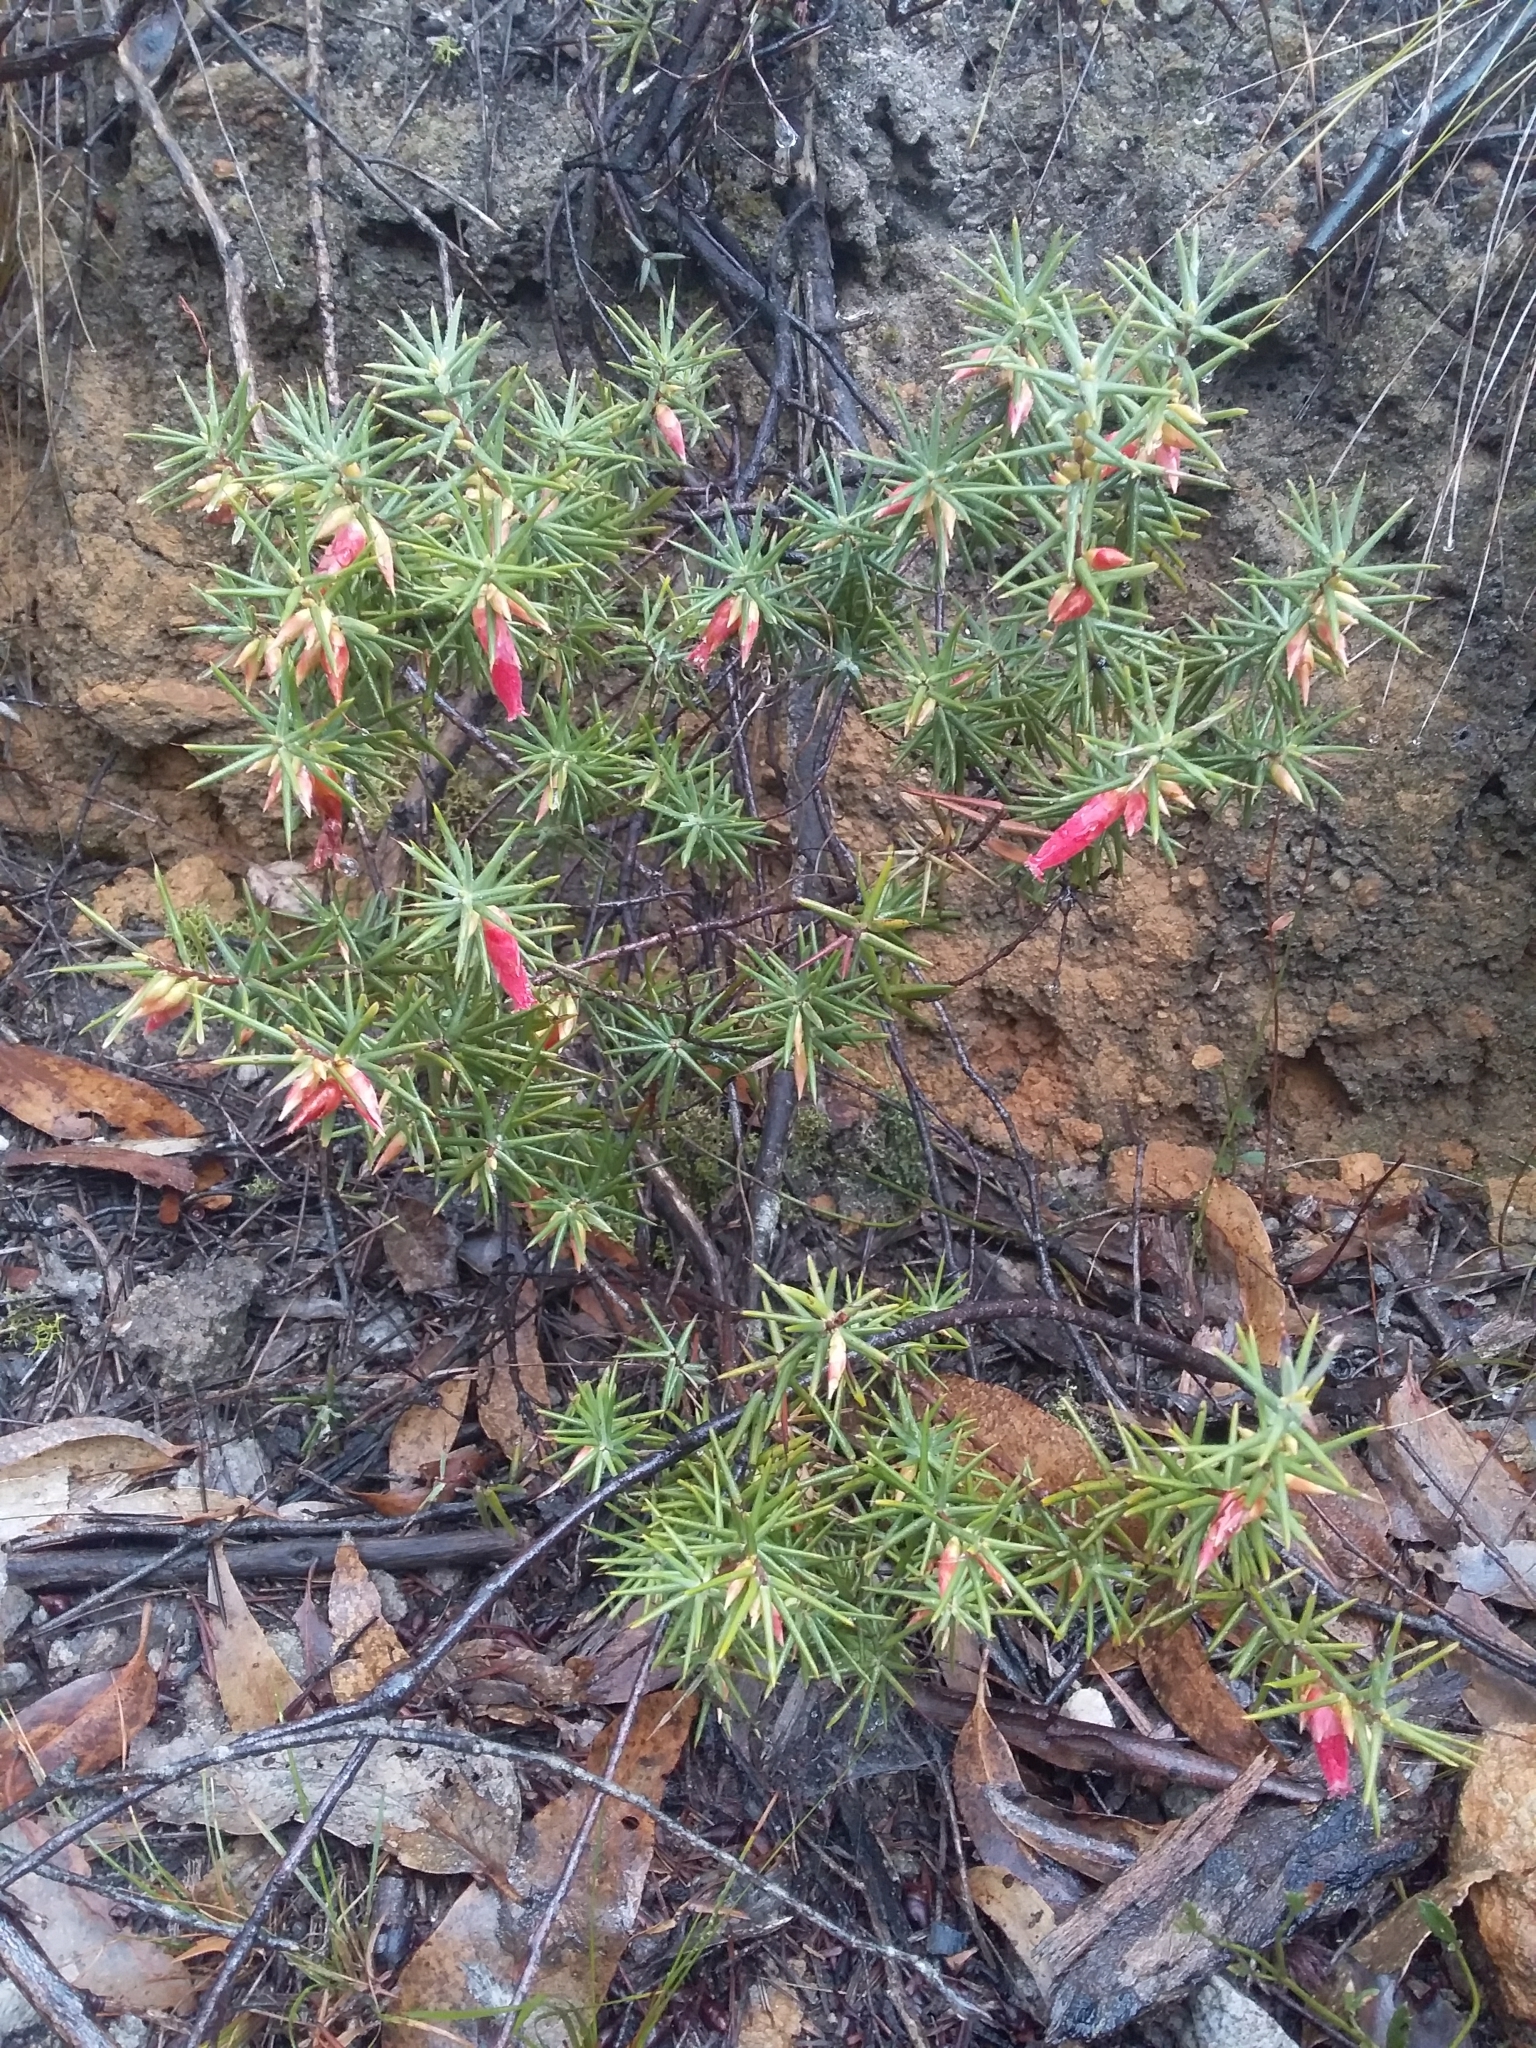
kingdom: Plantae
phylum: Tracheophyta
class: Magnoliopsida
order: Ericales
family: Ericaceae
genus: Stenanthera
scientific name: Stenanthera conostephioides
